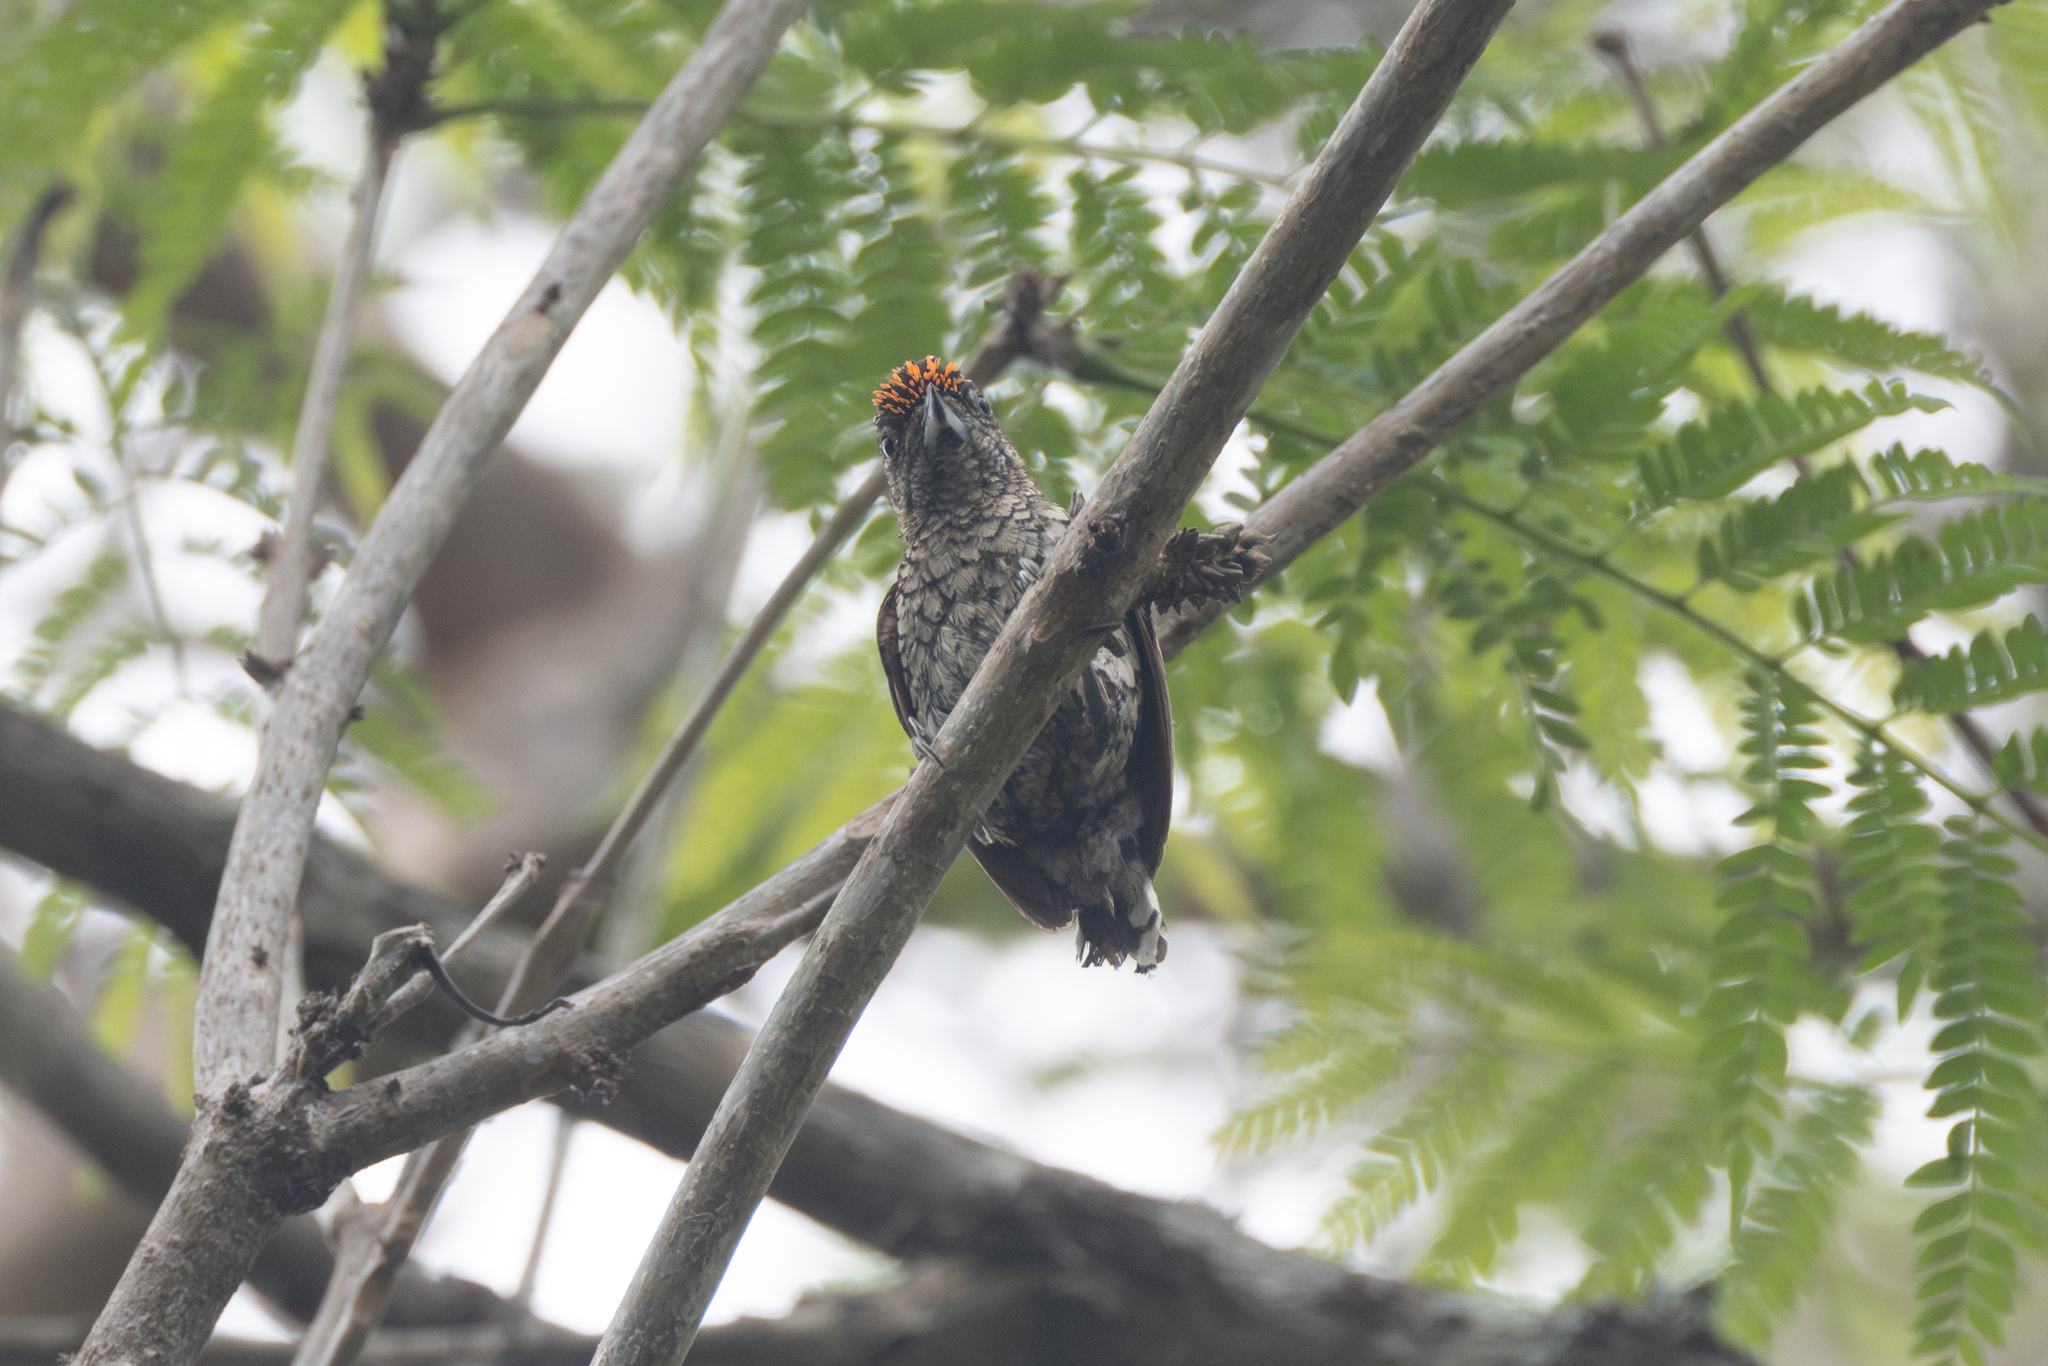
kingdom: Animalia
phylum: Chordata
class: Aves
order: Piciformes
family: Picidae
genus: Picumnus
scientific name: Picumnus squamulatus
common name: Scaled piculet
